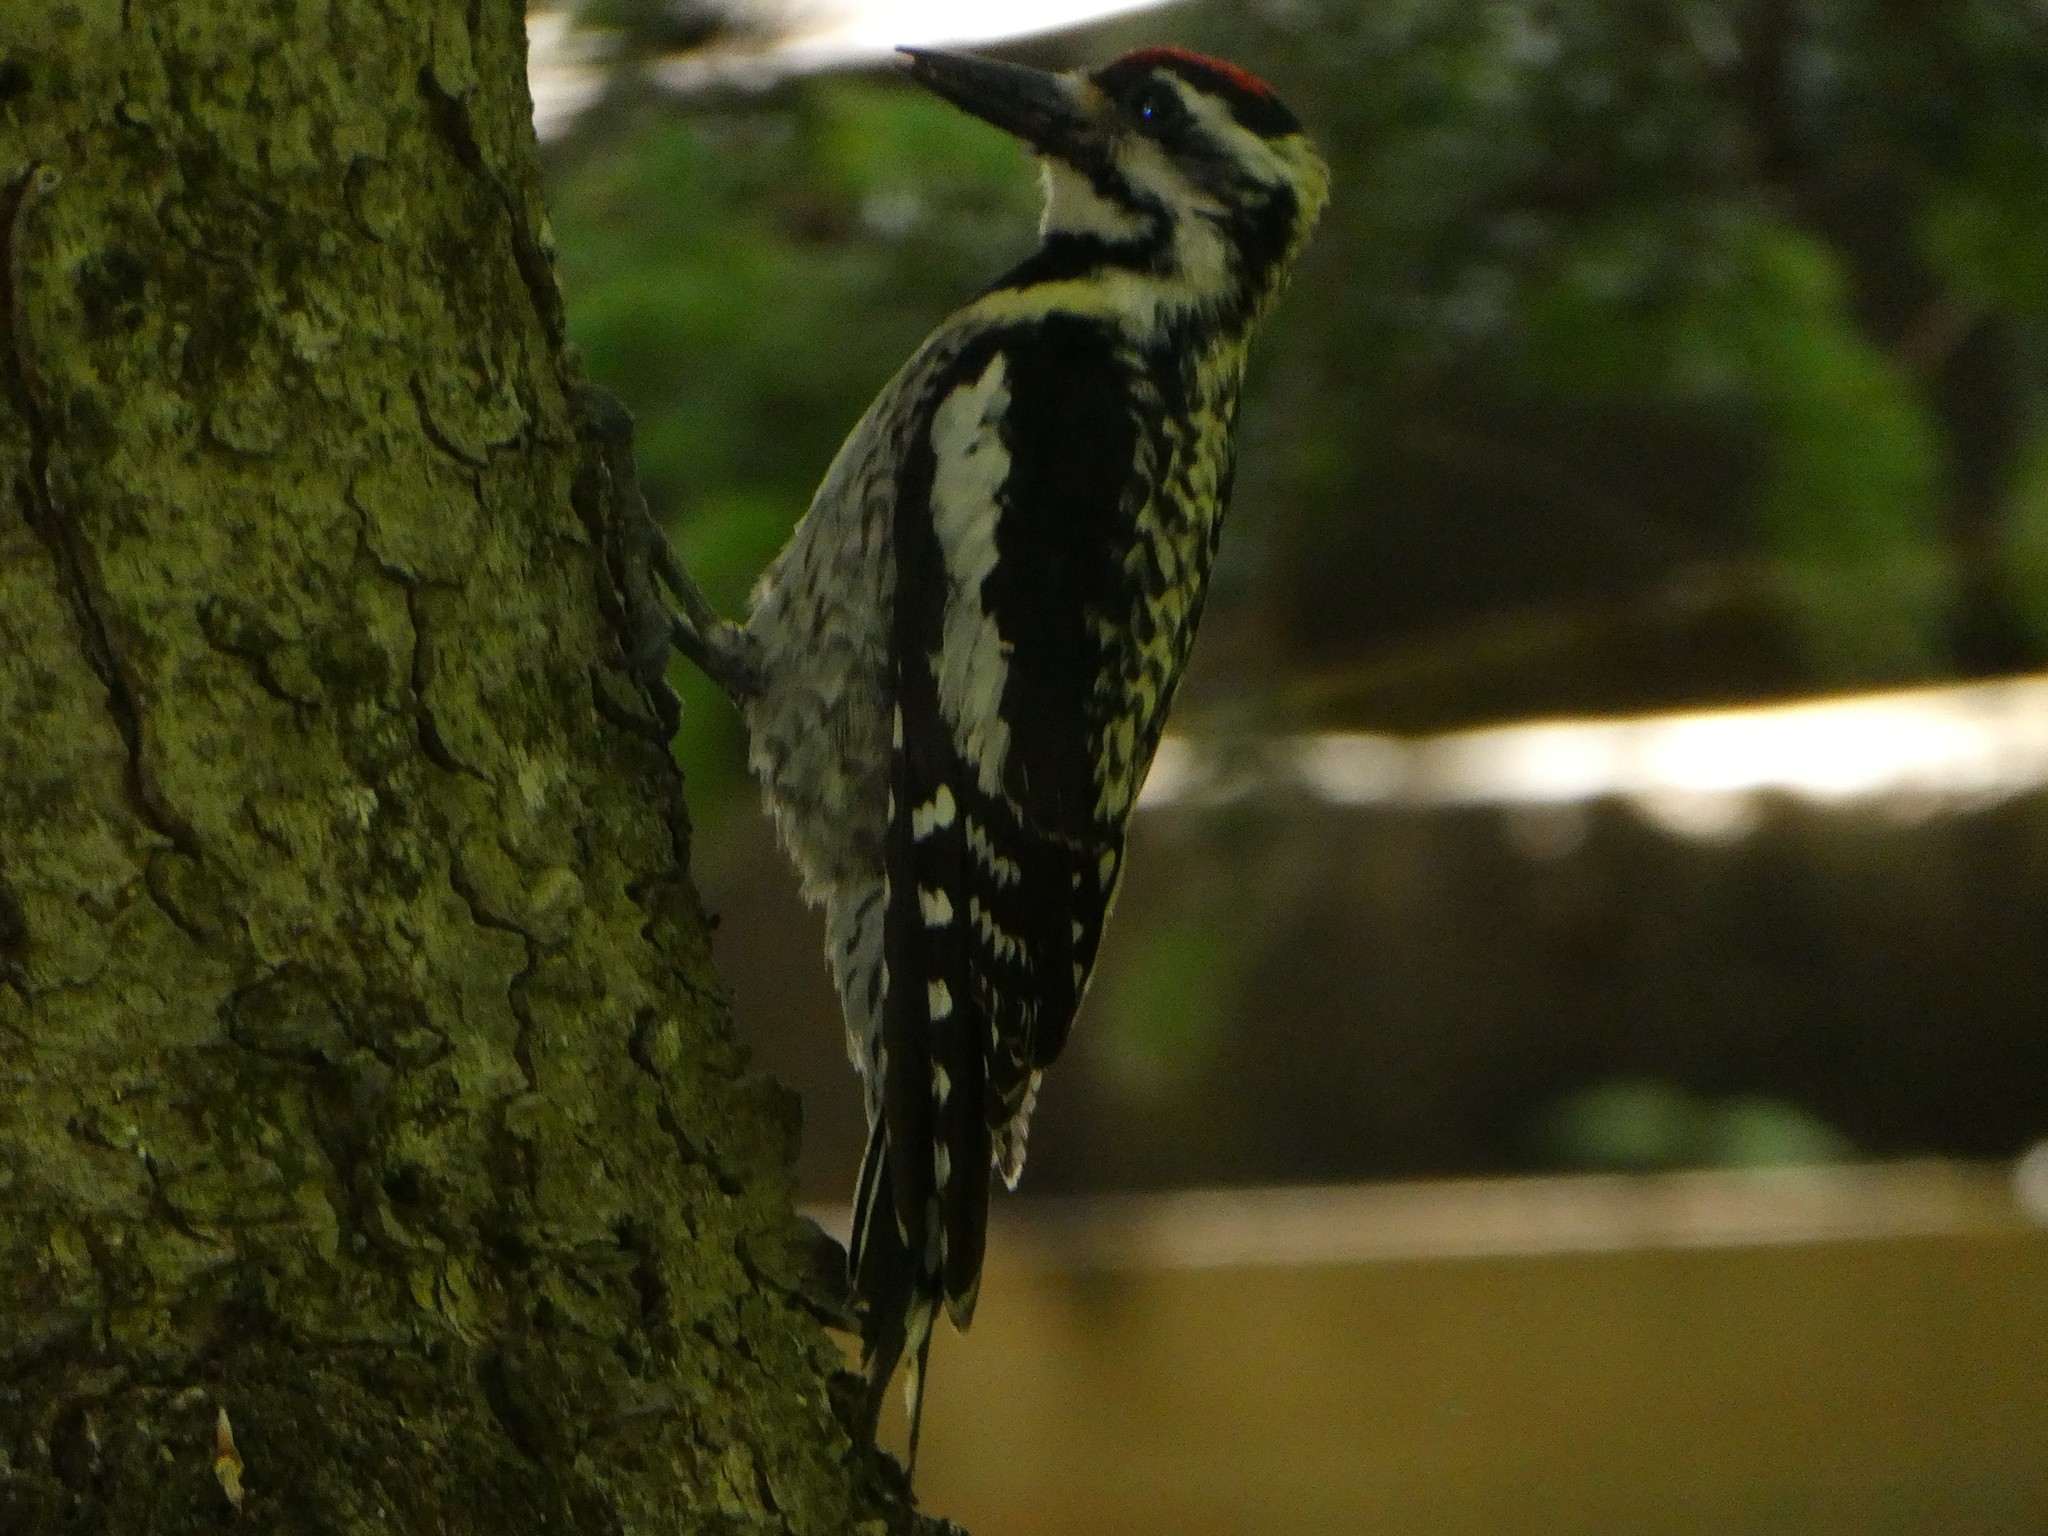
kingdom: Animalia
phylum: Chordata
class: Aves
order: Piciformes
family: Picidae
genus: Sphyrapicus
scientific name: Sphyrapicus varius
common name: Yellow-bellied sapsucker
